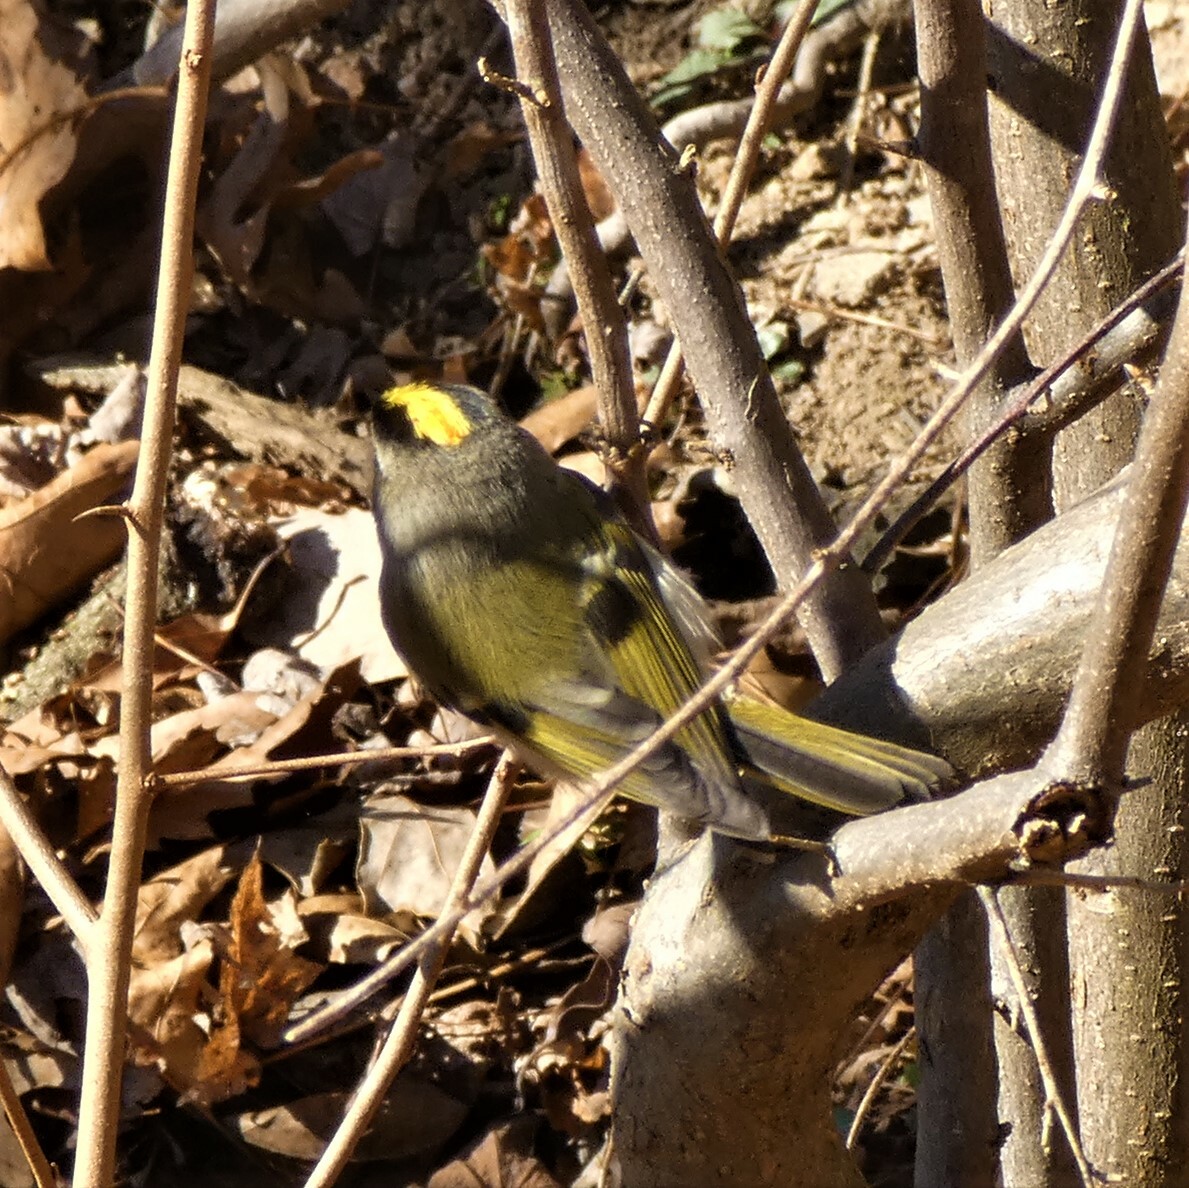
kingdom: Animalia
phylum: Chordata
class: Aves
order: Passeriformes
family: Regulidae
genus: Regulus
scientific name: Regulus satrapa
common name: Golden-crowned kinglet
